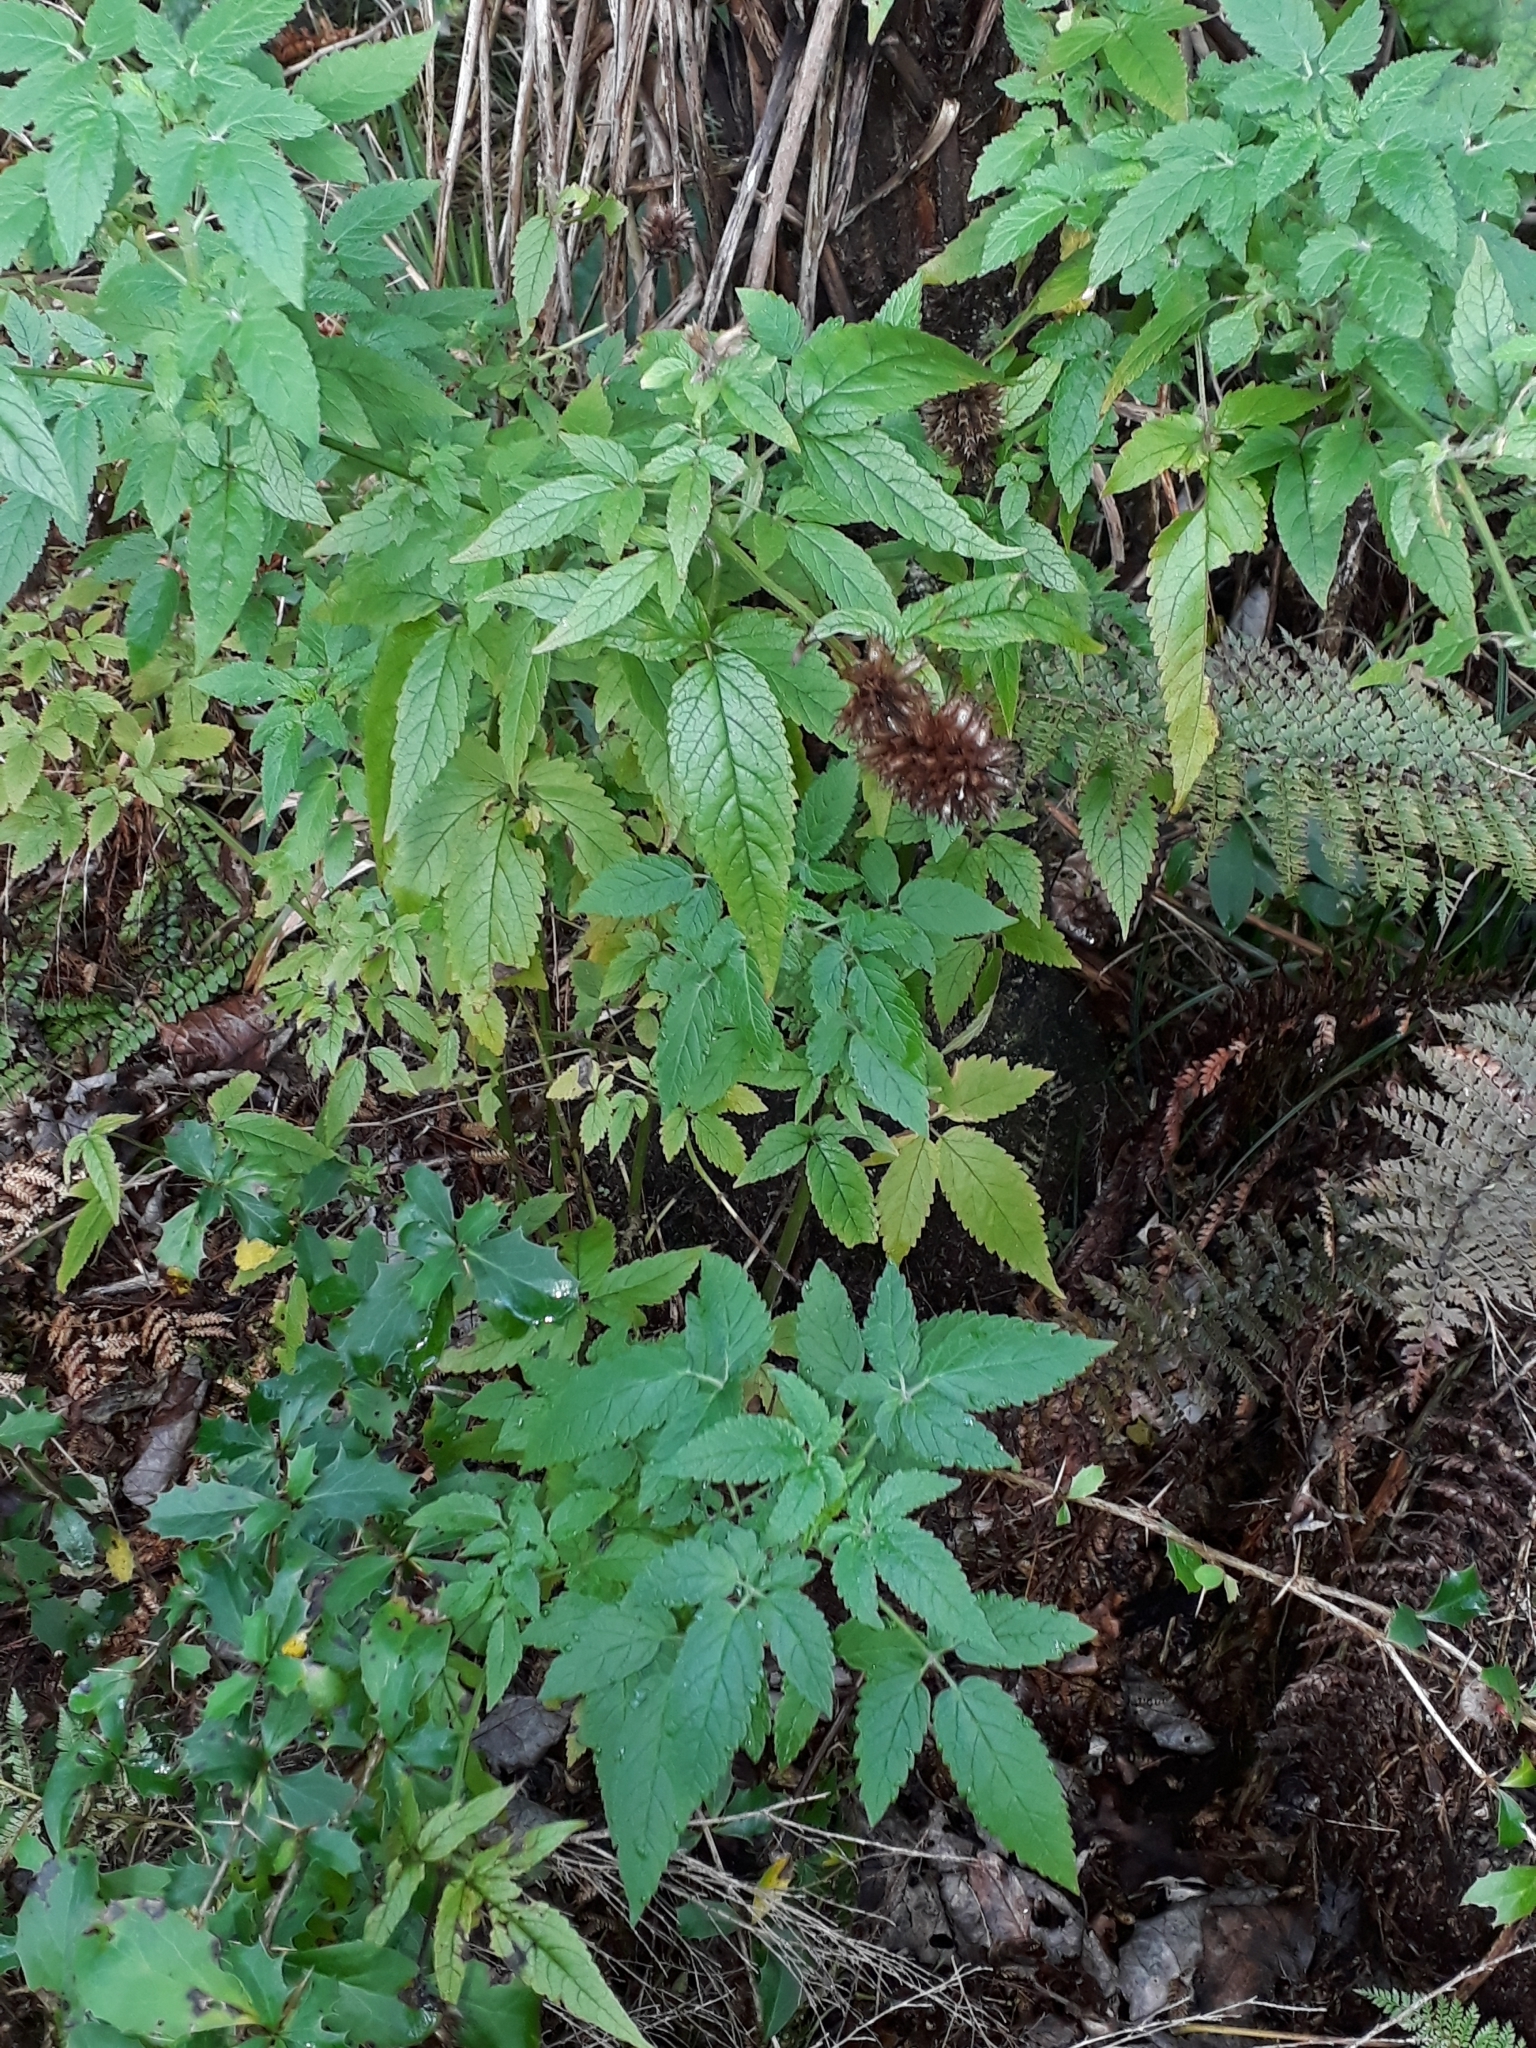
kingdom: Plantae
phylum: Tracheophyta
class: Magnoliopsida
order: Lamiales
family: Lamiaceae
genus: Cedronella
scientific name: Cedronella canariensis
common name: Canary islands balm
